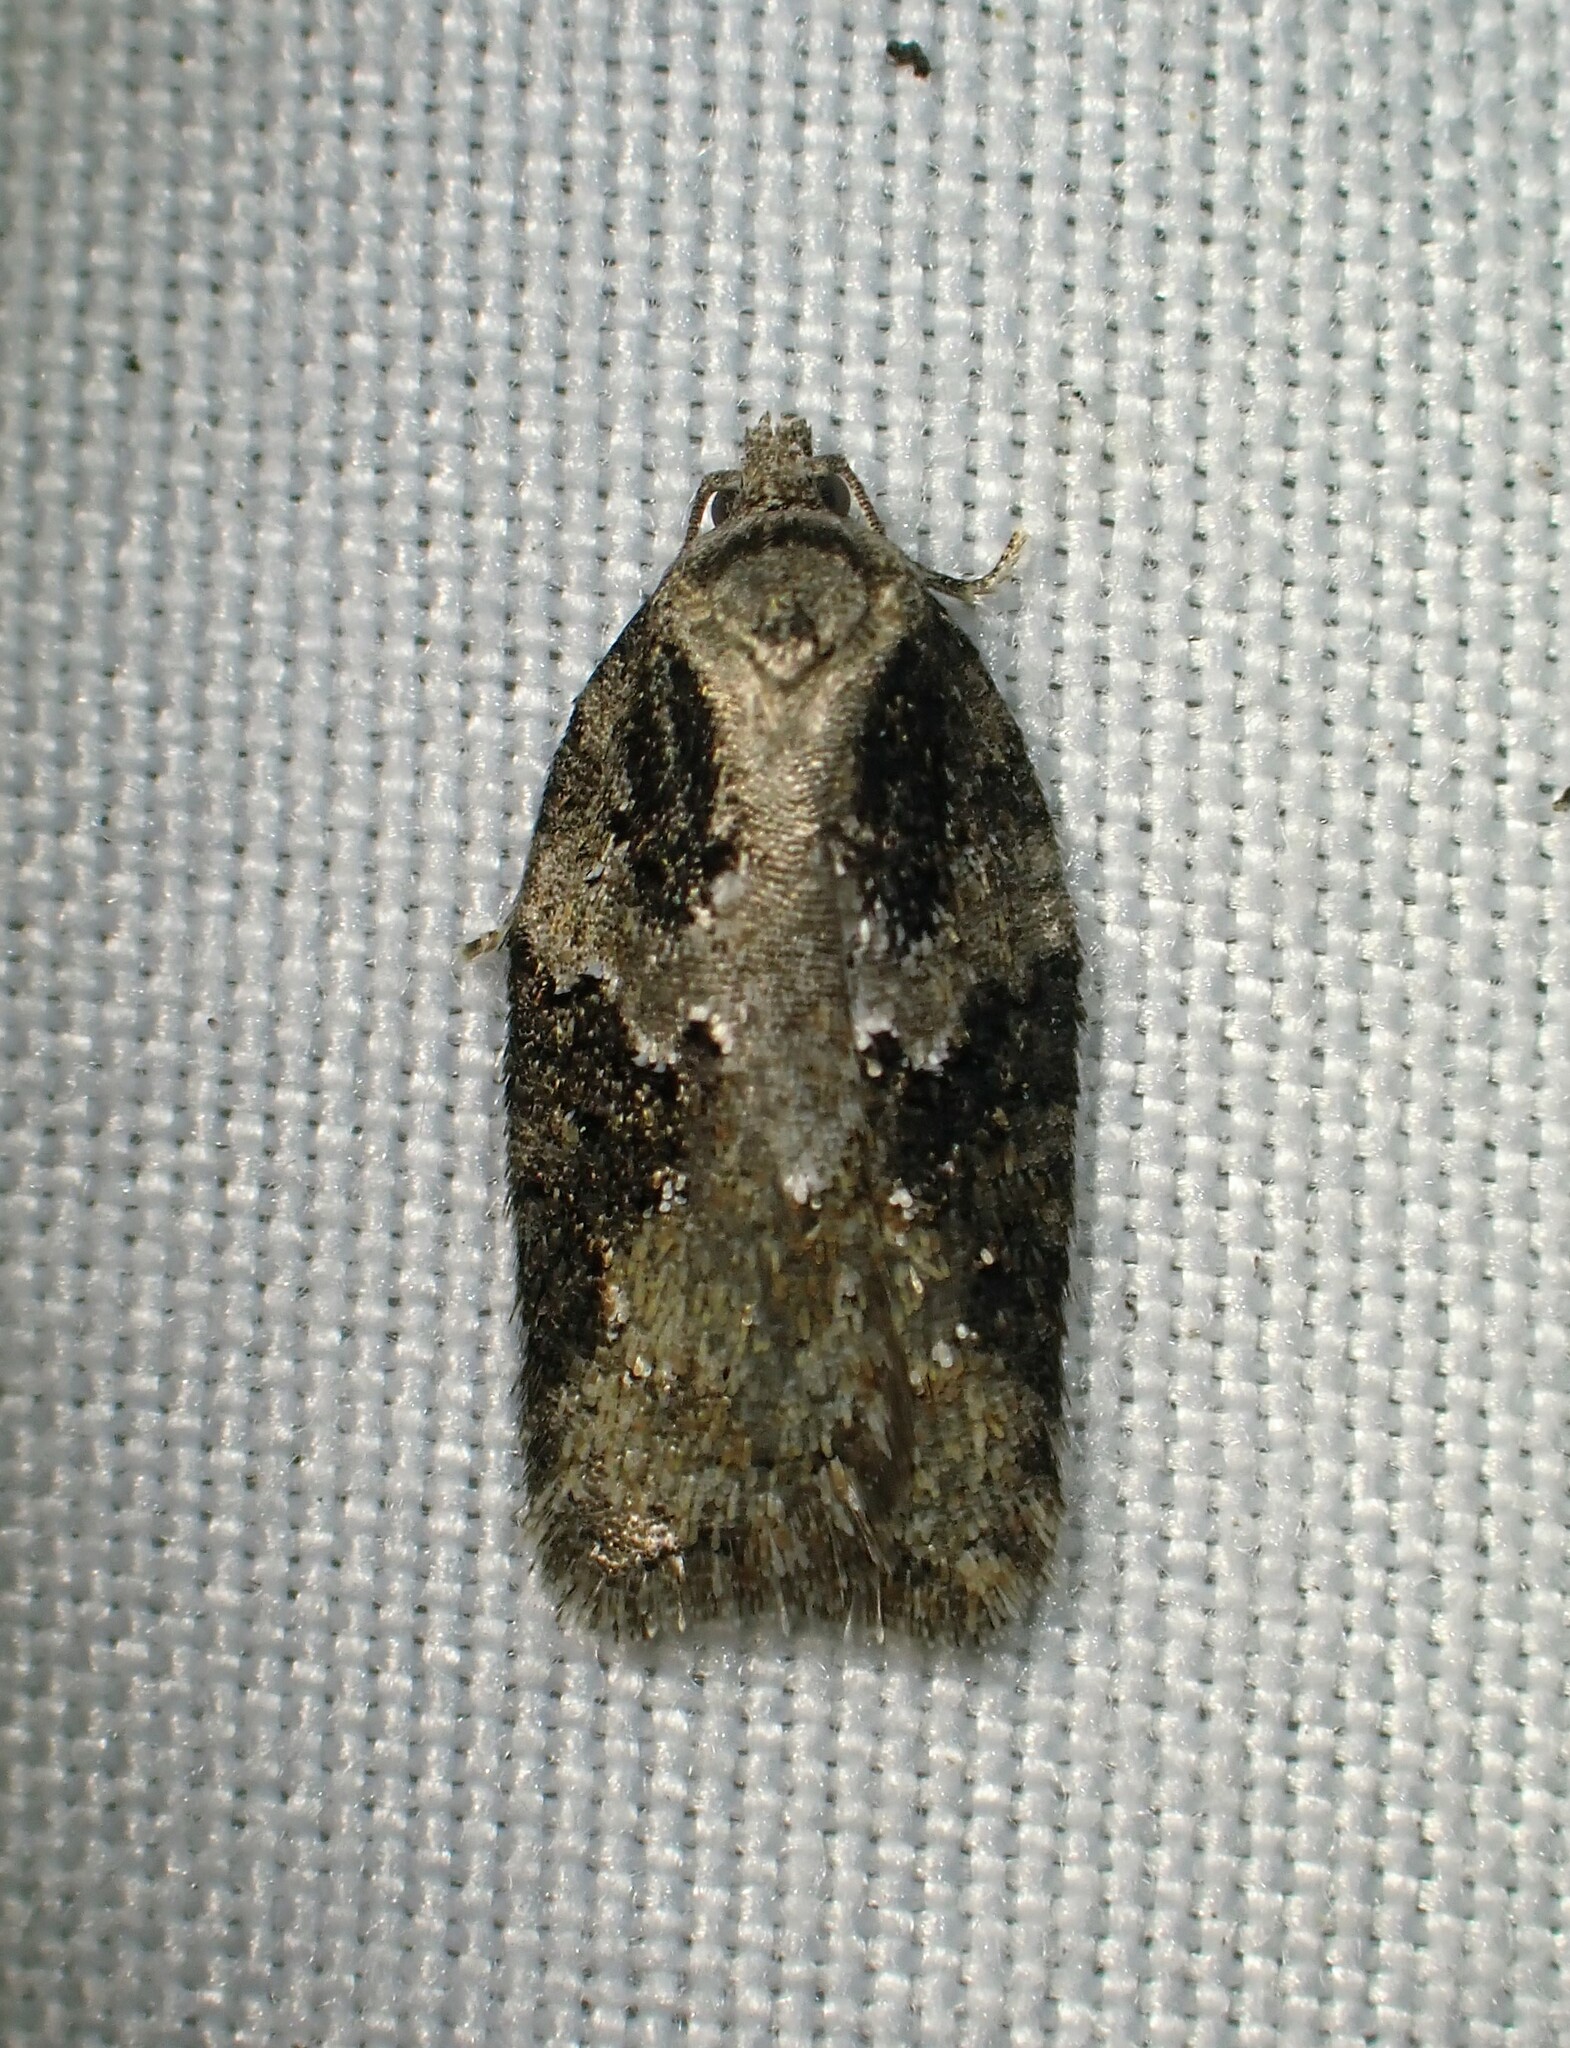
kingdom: Animalia
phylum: Arthropoda
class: Insecta
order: Lepidoptera
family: Tortricidae
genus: Acleris
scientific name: Acleris chalybeana
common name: Lesser maple leafroller
